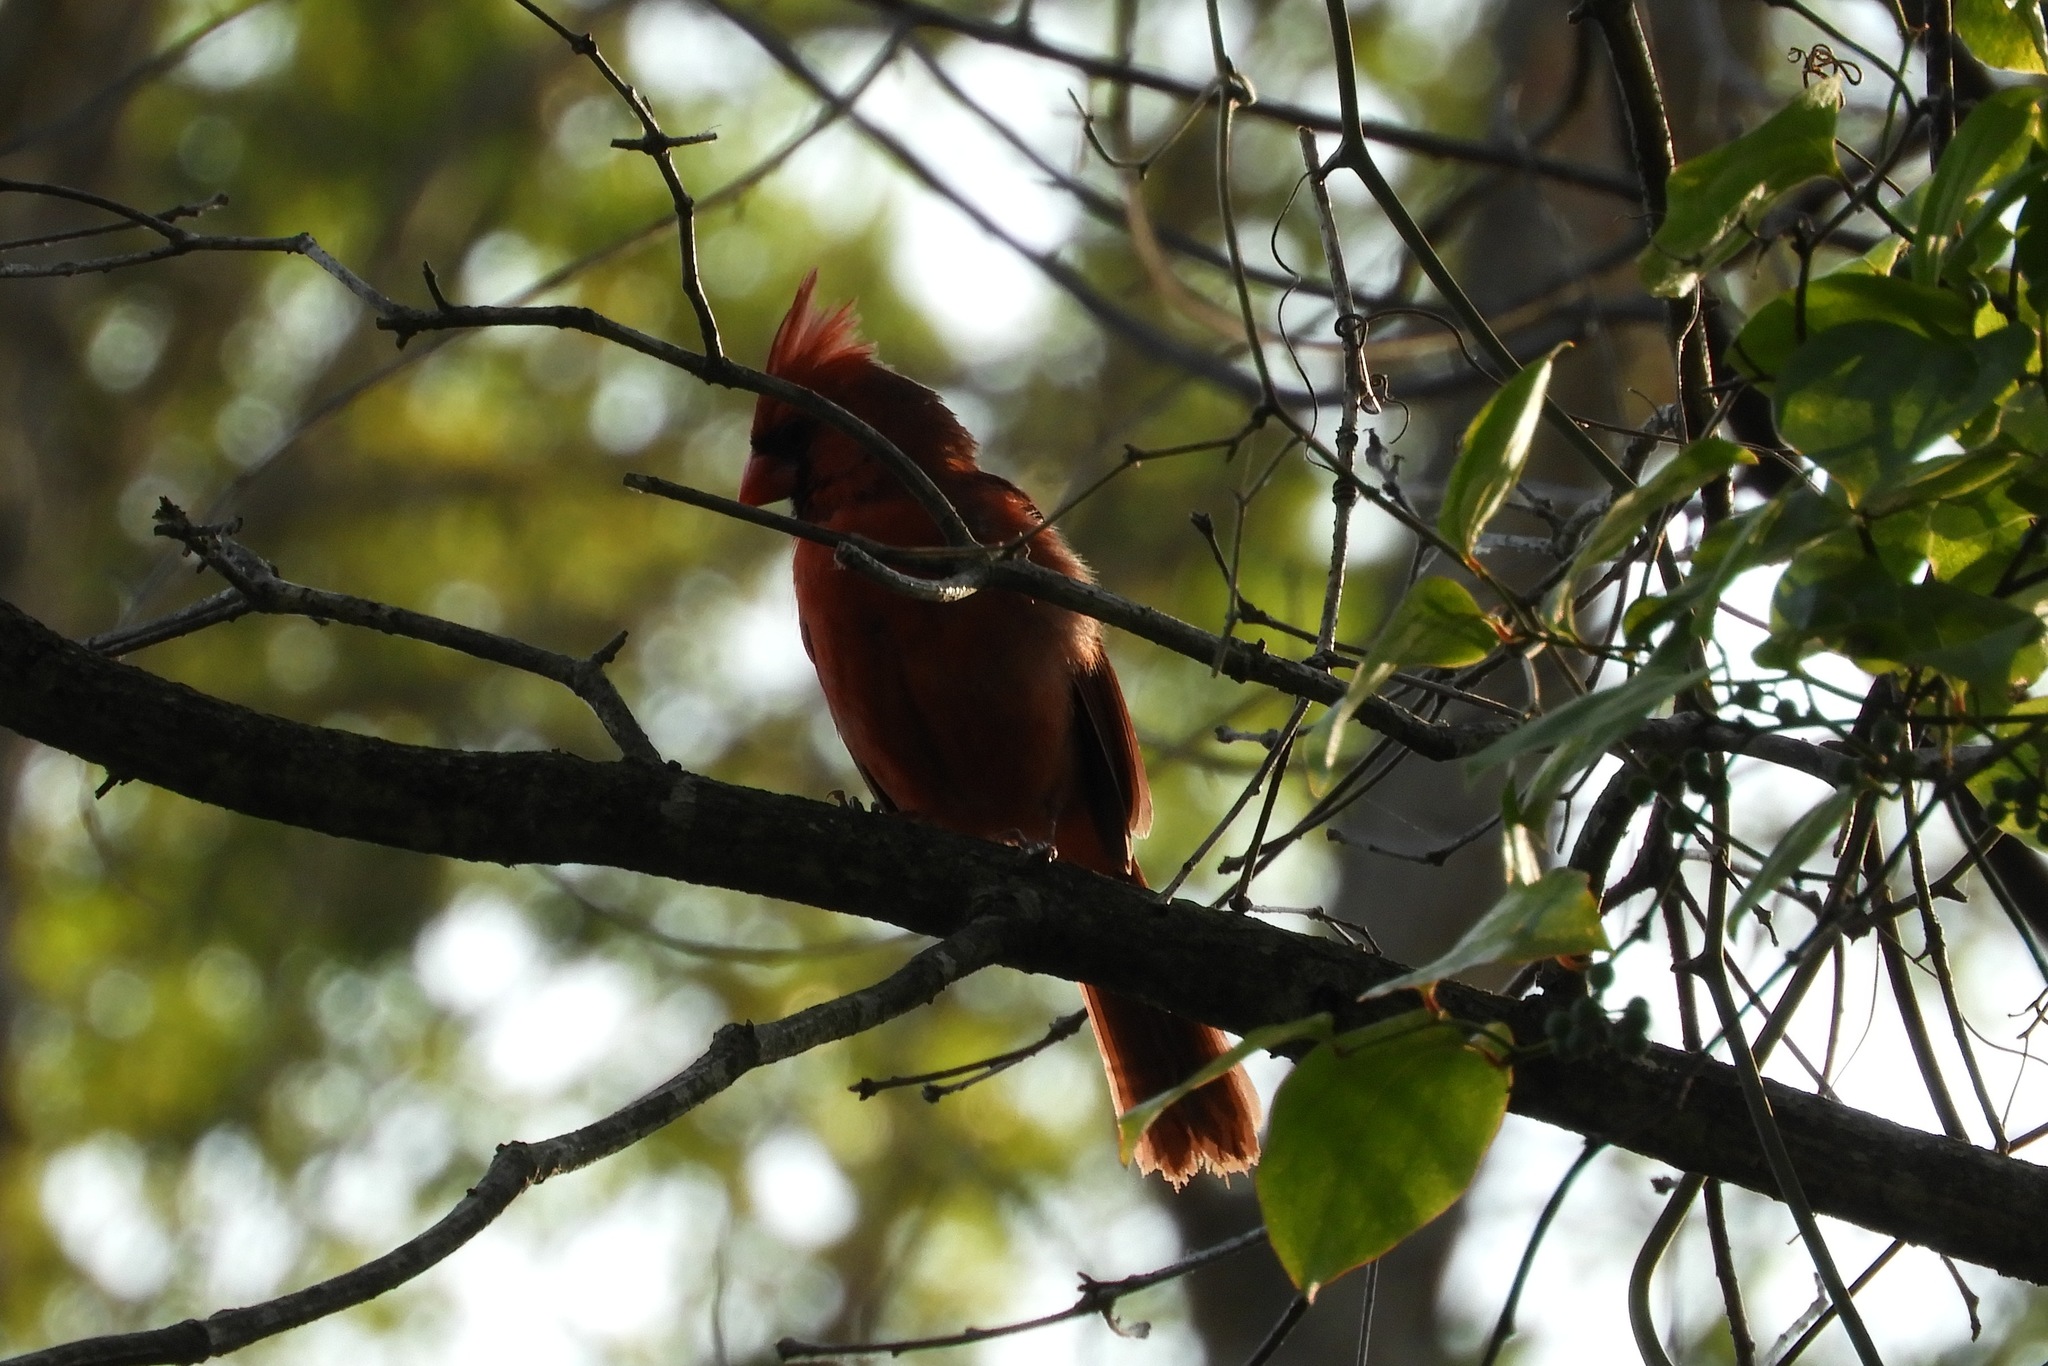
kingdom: Animalia
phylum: Chordata
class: Aves
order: Passeriformes
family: Cardinalidae
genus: Cardinalis
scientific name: Cardinalis cardinalis
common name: Northern cardinal
